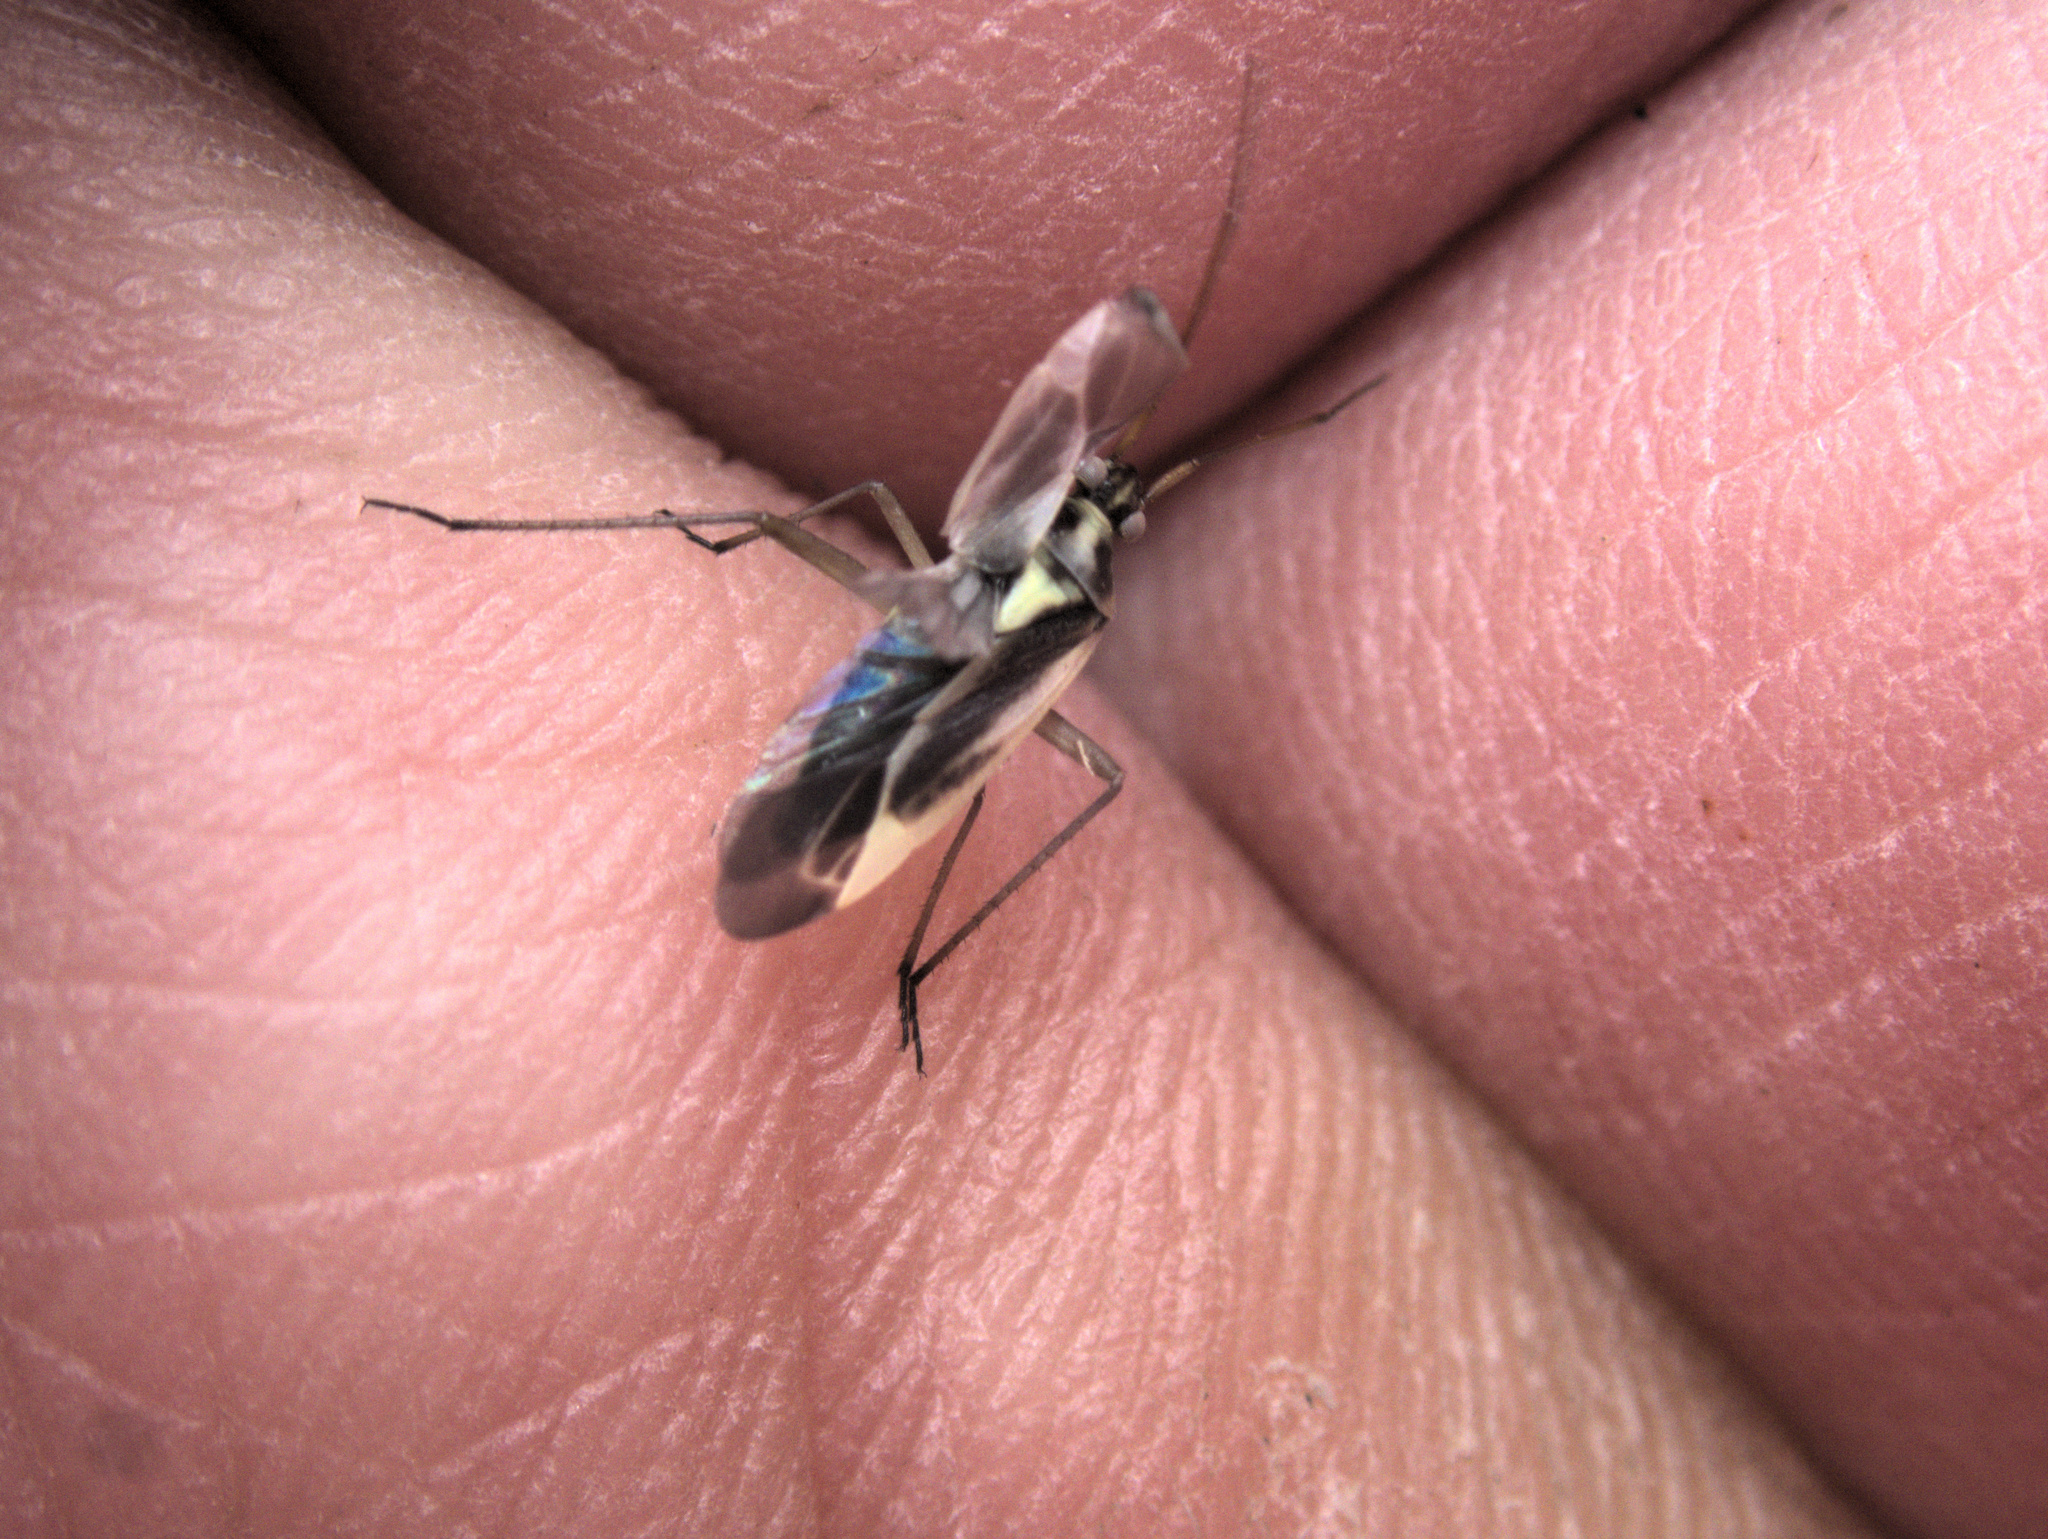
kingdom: Animalia
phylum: Arthropoda
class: Insecta
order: Hemiptera
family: Miridae
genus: Stenotus
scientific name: Stenotus binotatus
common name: Plant bug
